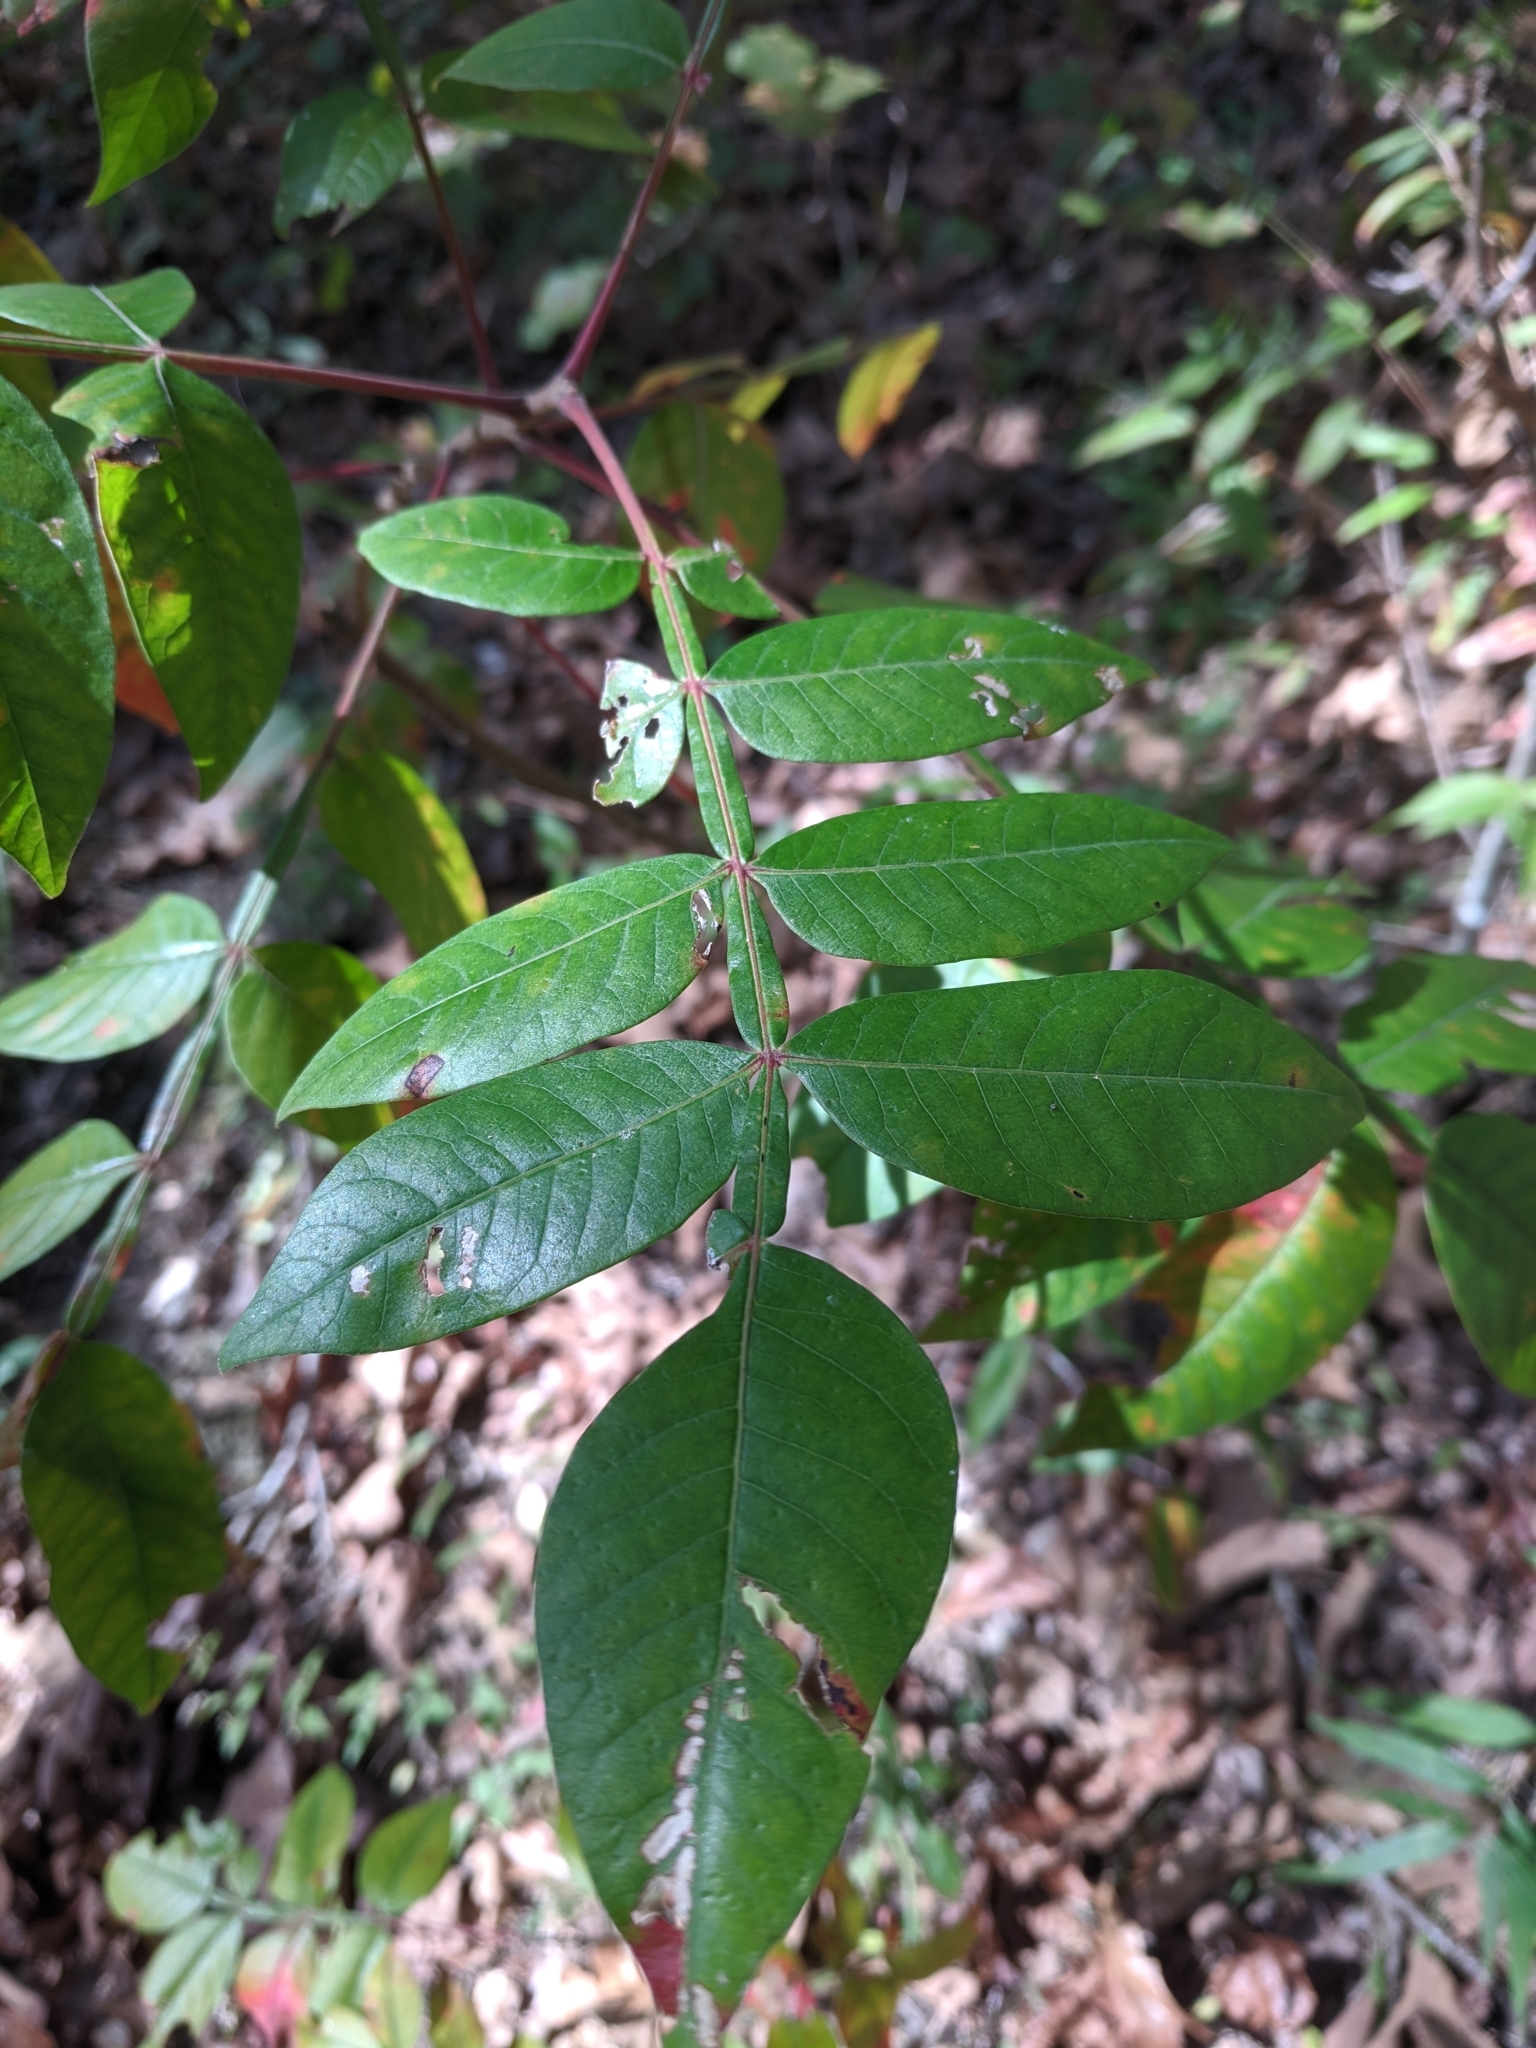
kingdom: Plantae
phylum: Tracheophyta
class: Magnoliopsida
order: Sapindales
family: Anacardiaceae
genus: Rhus
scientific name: Rhus copallina
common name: Shining sumac
